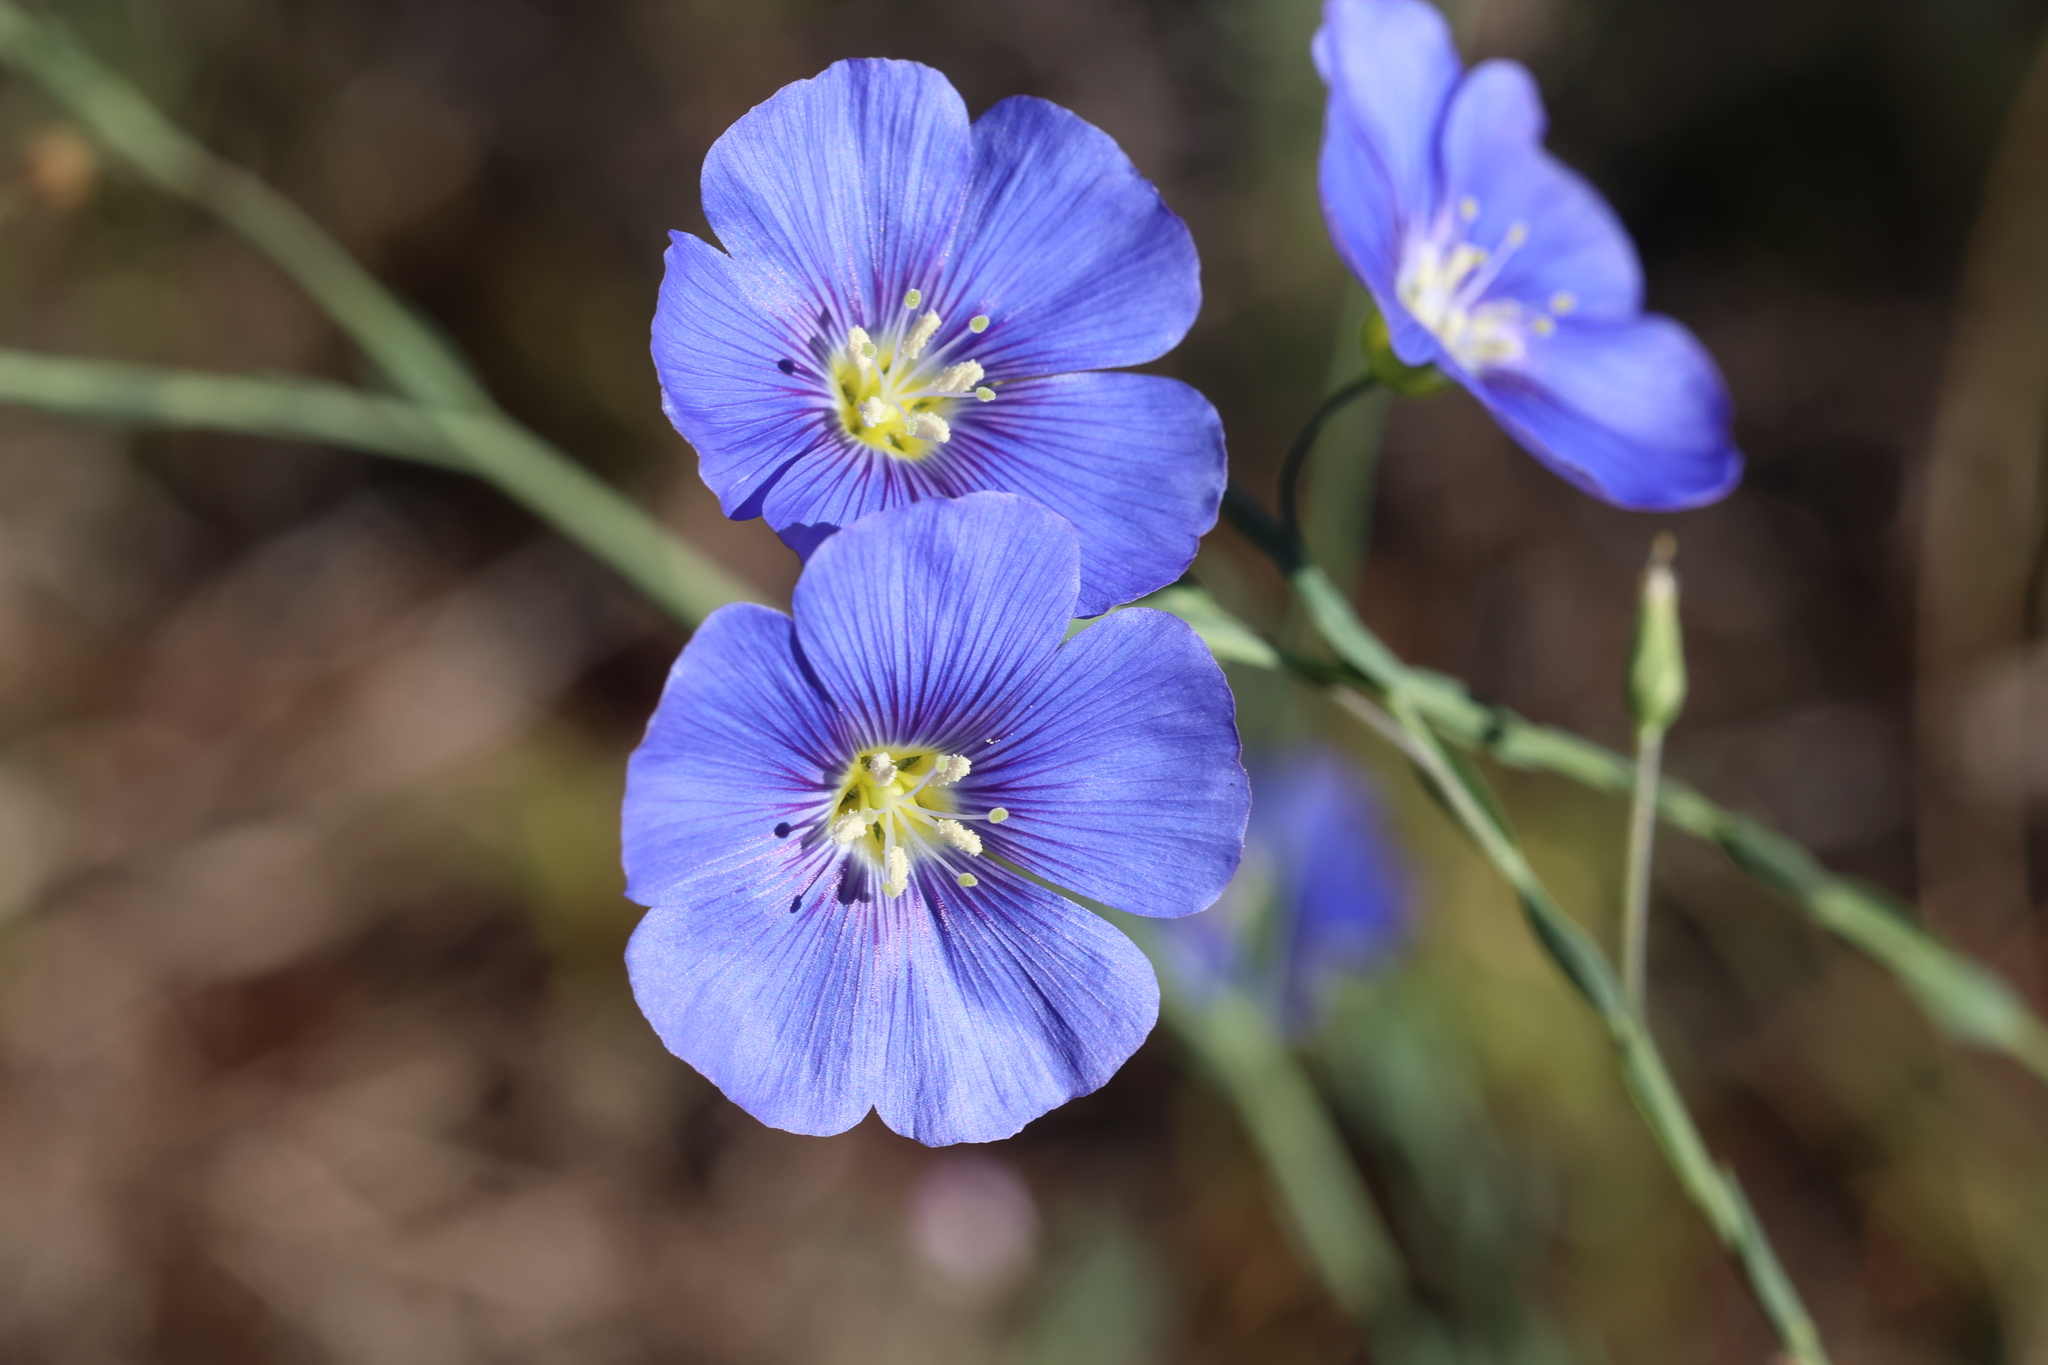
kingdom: Plantae
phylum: Tracheophyta
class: Magnoliopsida
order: Malpighiales
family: Linaceae
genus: Linum
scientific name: Linum lewisii
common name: Prairie flax
